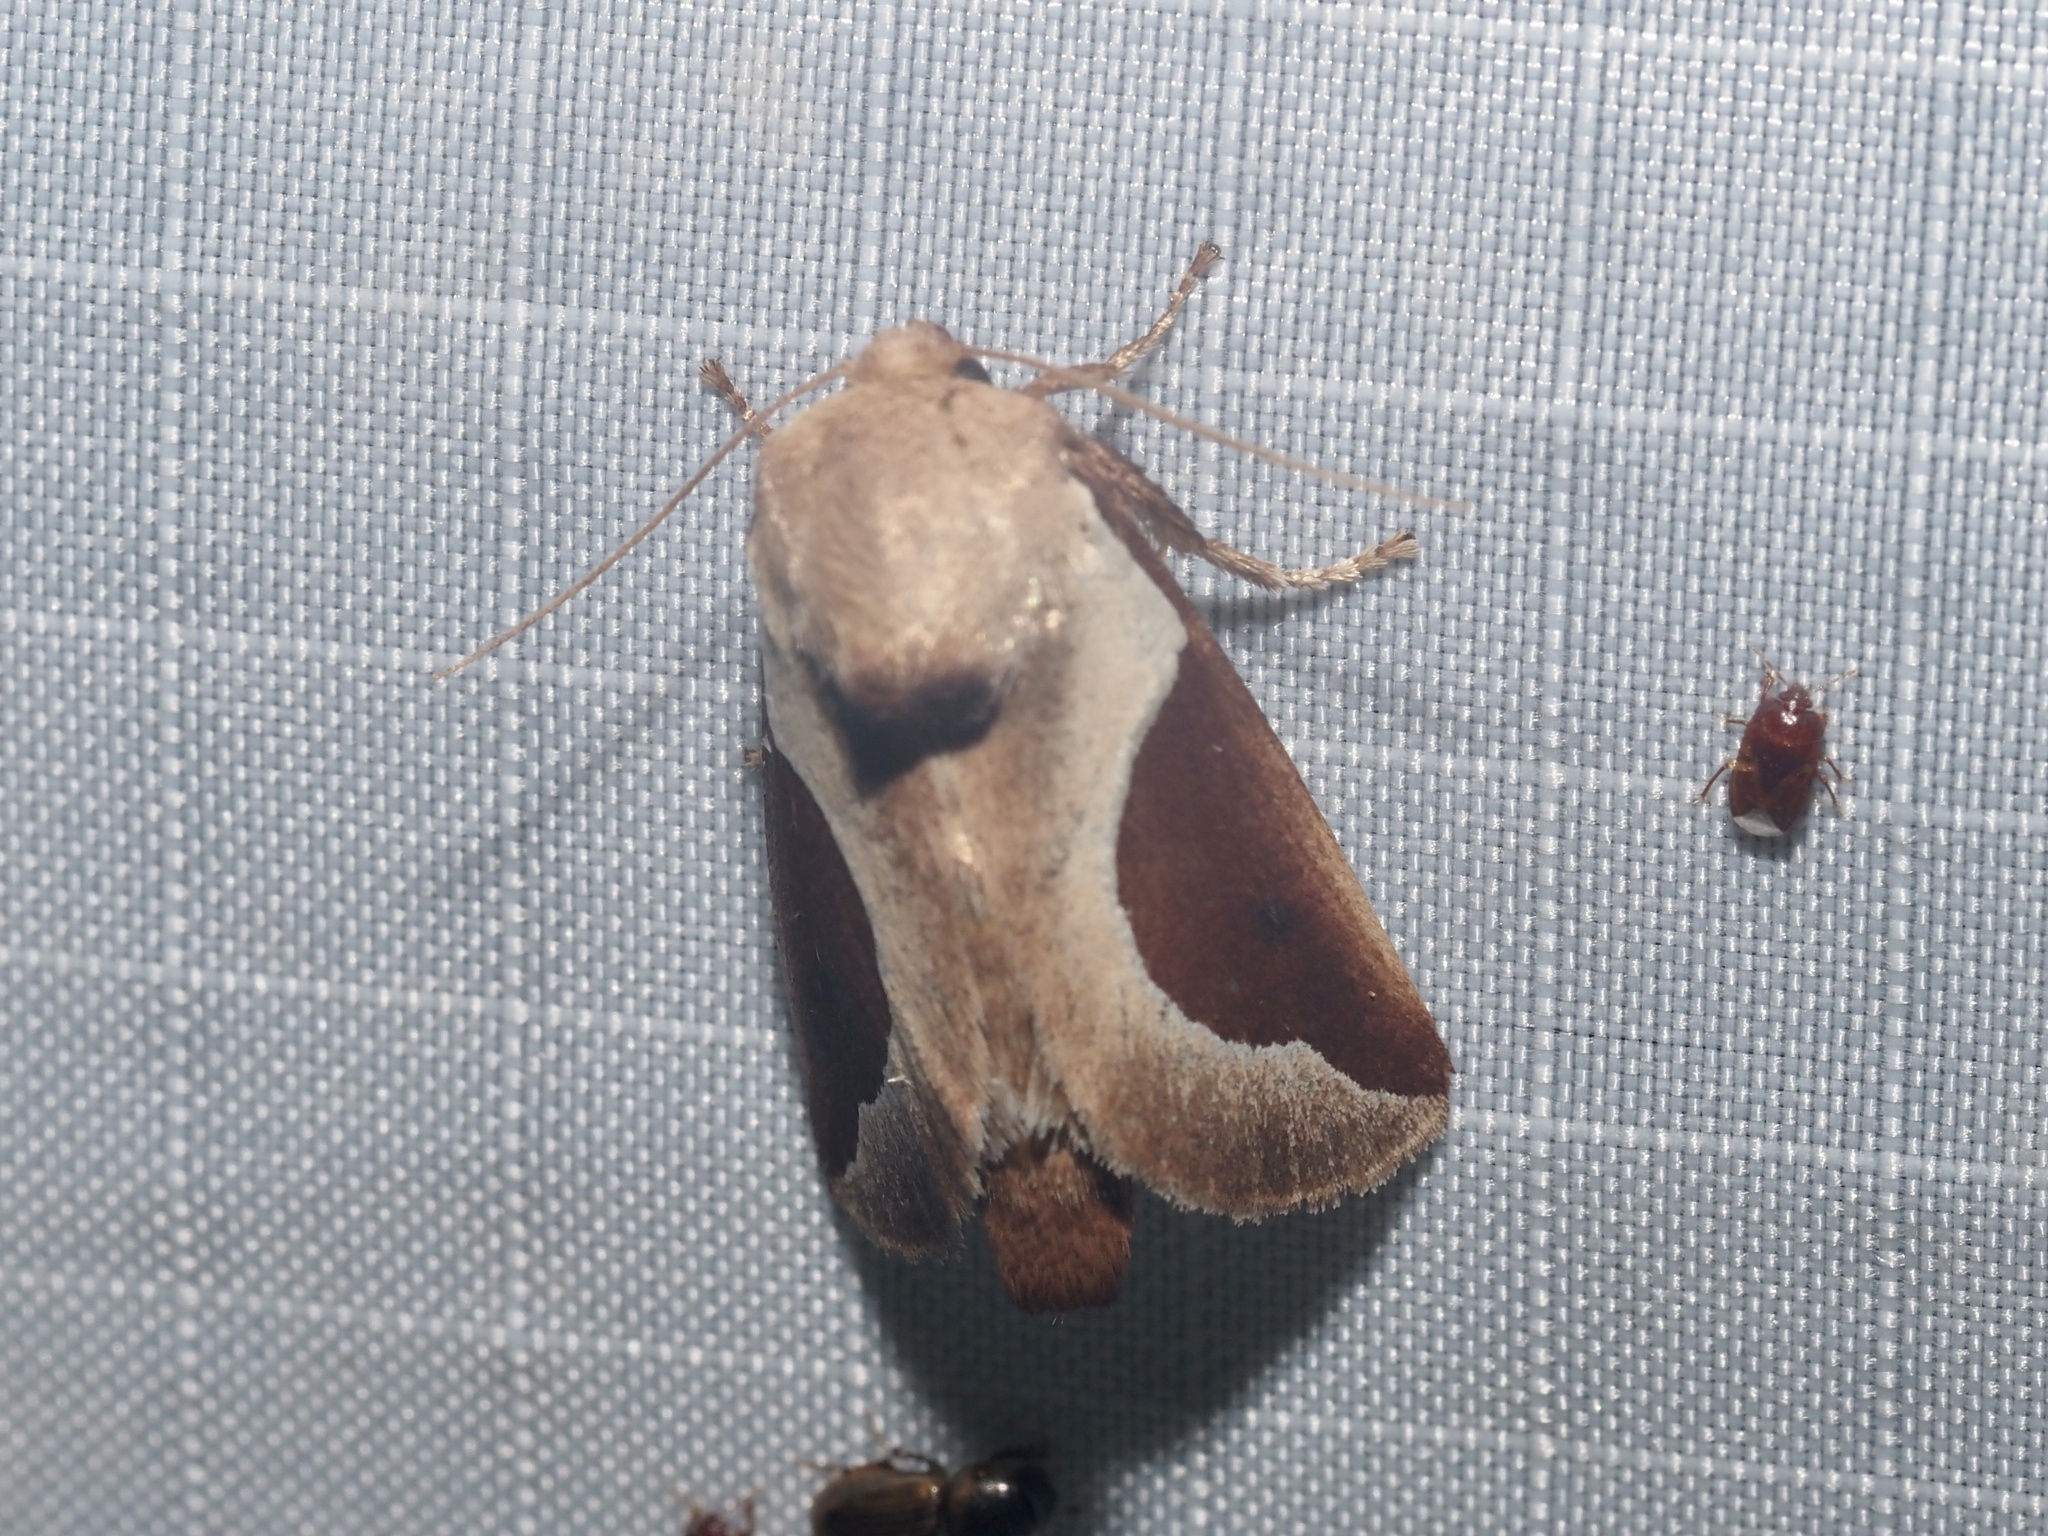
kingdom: Animalia
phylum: Arthropoda
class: Insecta
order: Lepidoptera
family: Limacodidae
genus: Prolimacodes
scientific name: Prolimacodes badia
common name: Skiff moth
